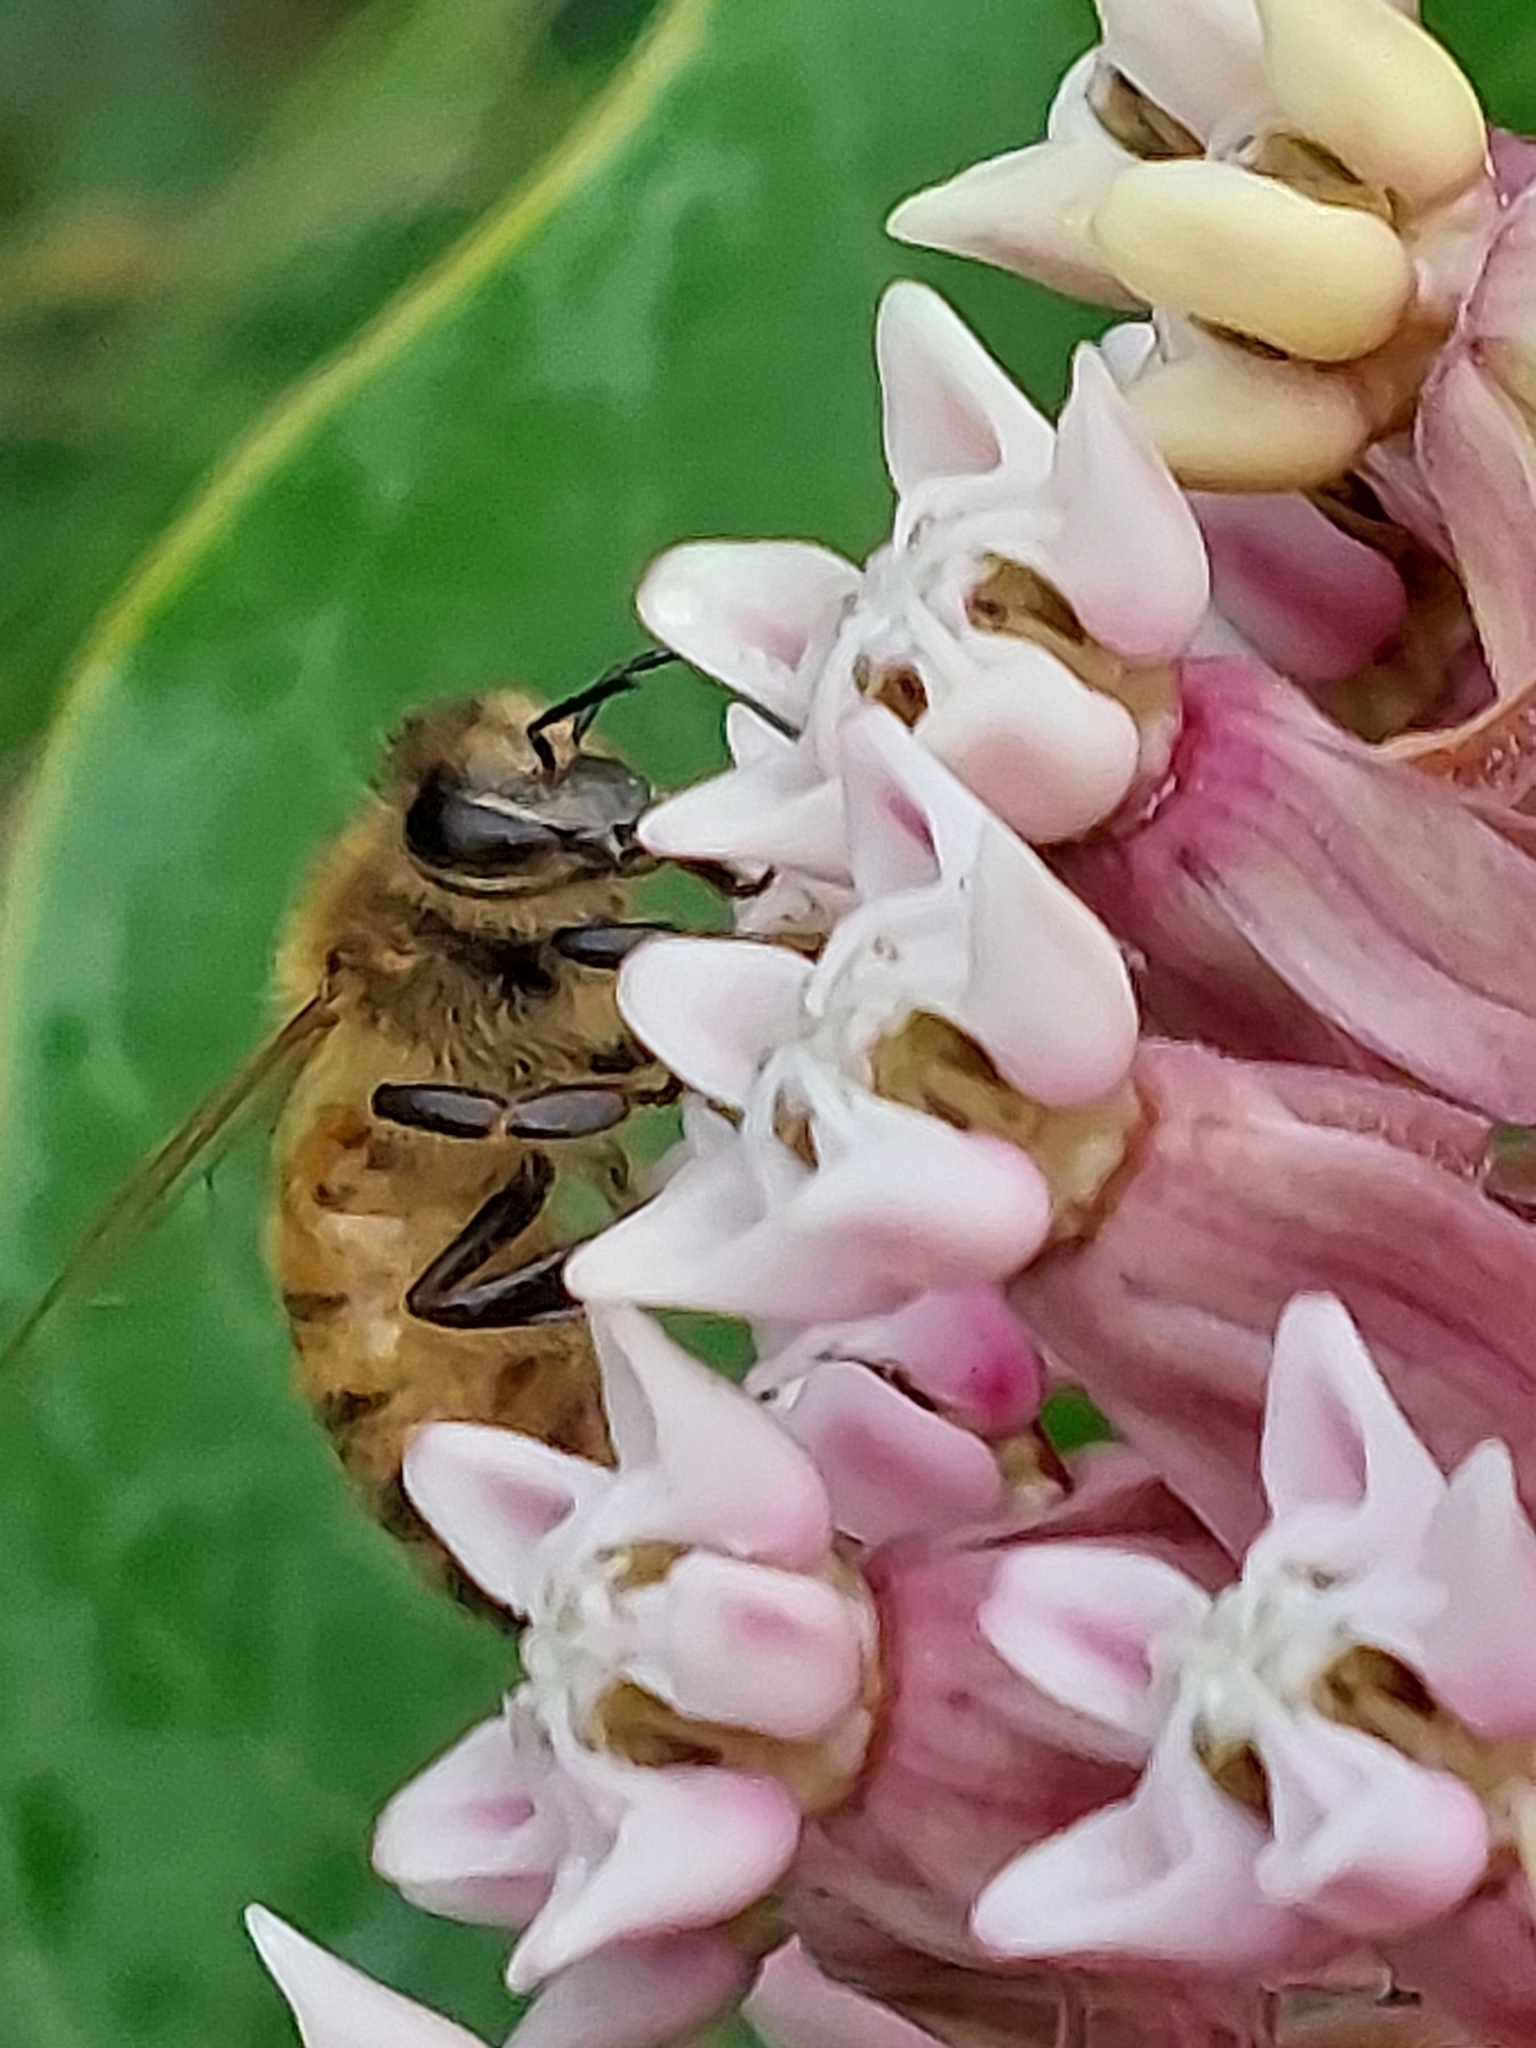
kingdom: Animalia
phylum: Arthropoda
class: Insecta
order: Hymenoptera
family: Apidae
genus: Apis
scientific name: Apis mellifera
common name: Honey bee
